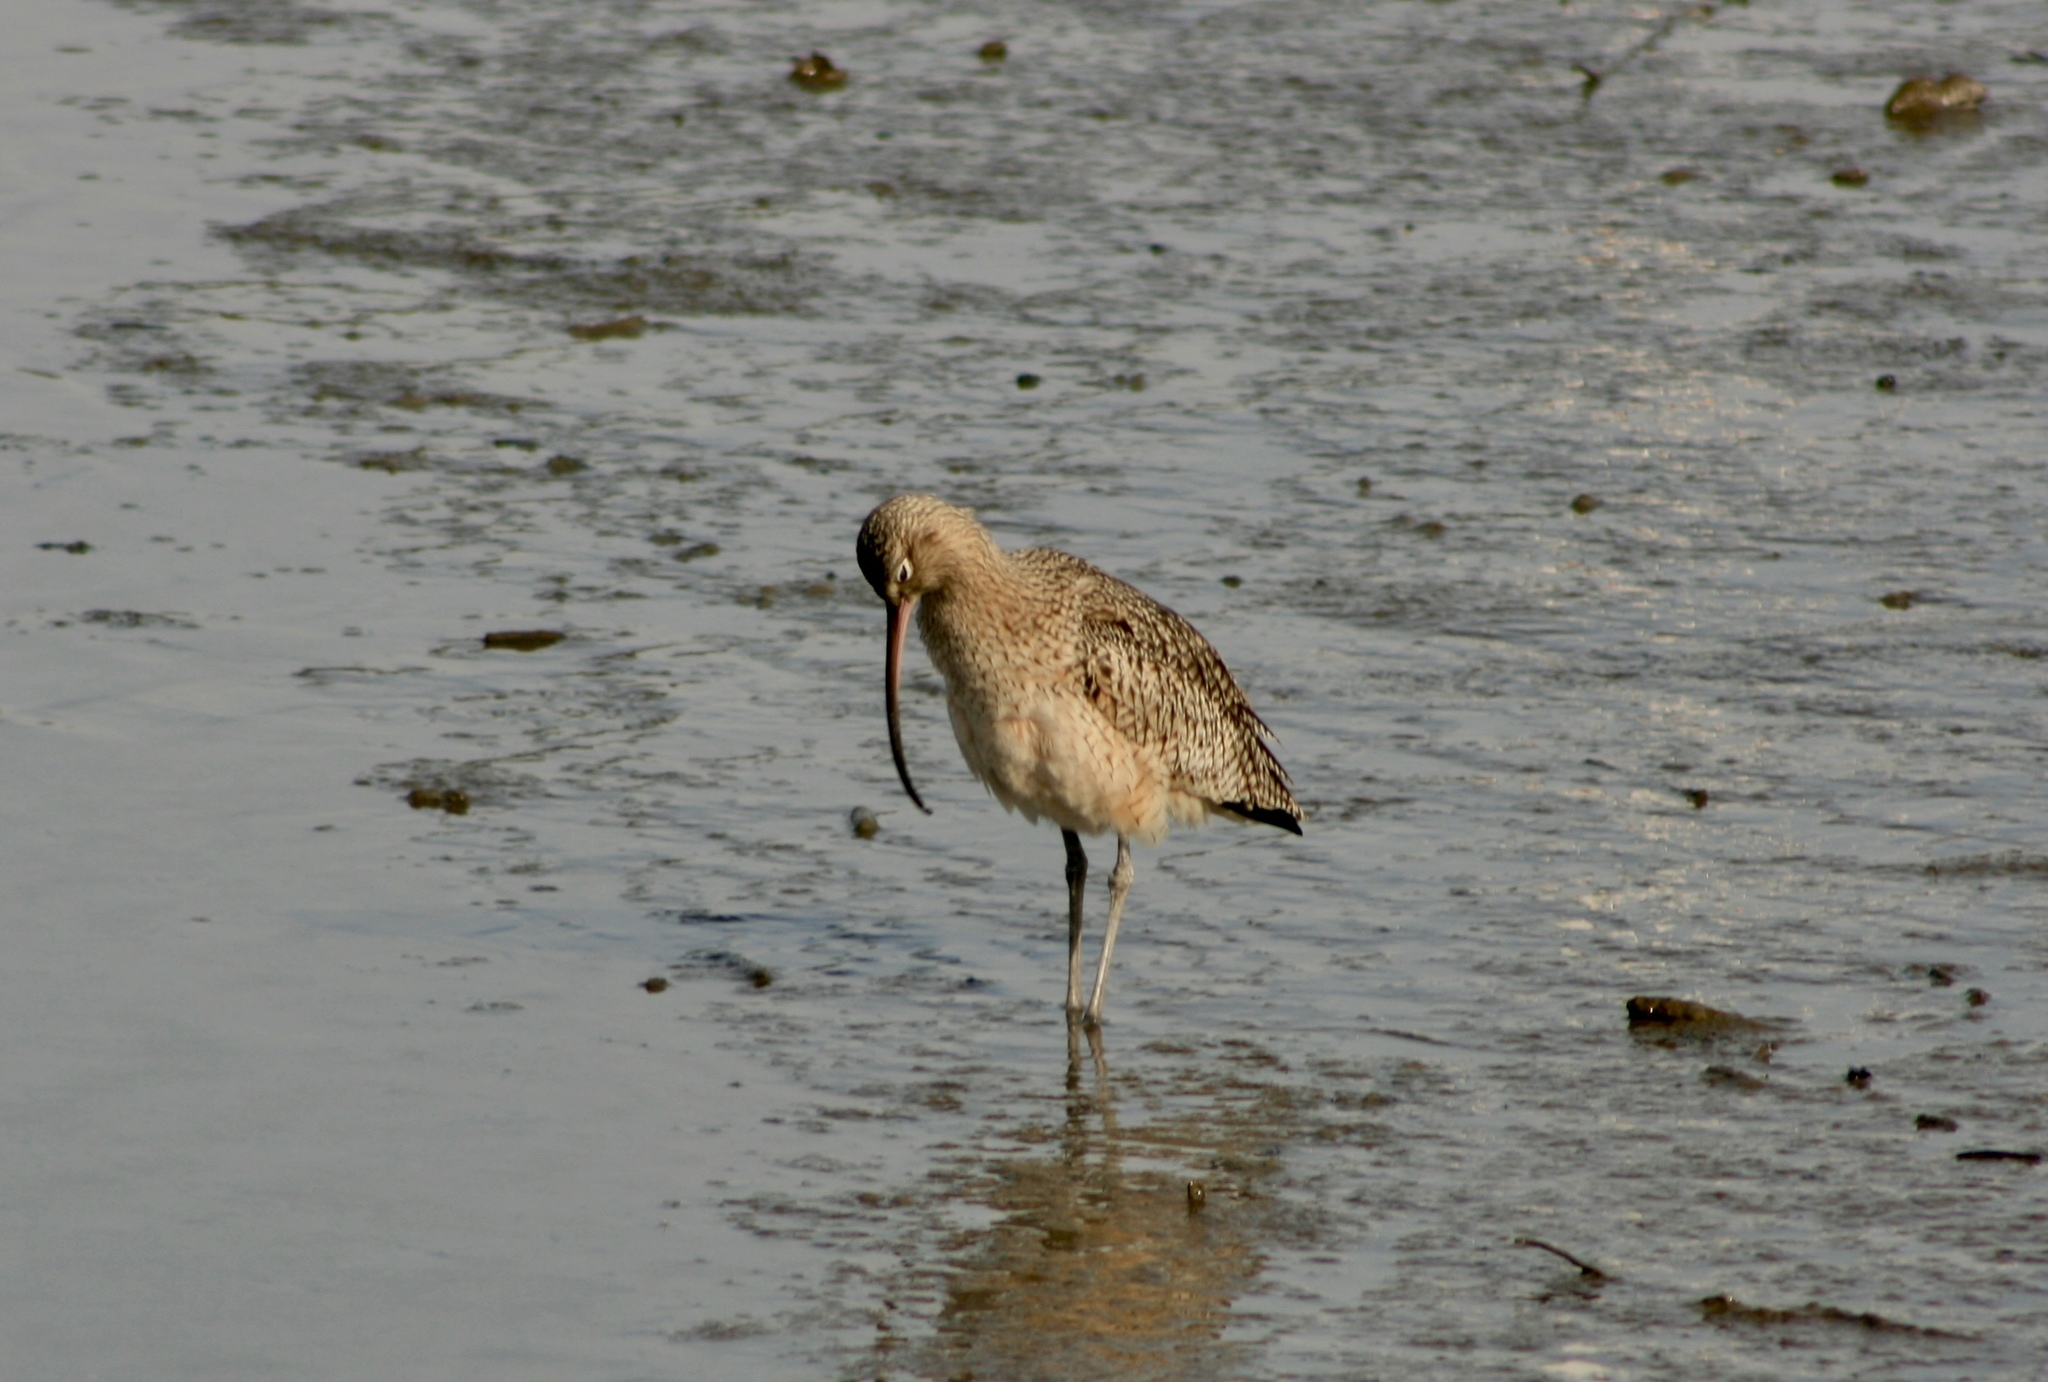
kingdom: Animalia
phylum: Chordata
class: Aves
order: Charadriiformes
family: Scolopacidae
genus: Numenius
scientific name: Numenius americanus
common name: Long-billed curlew
